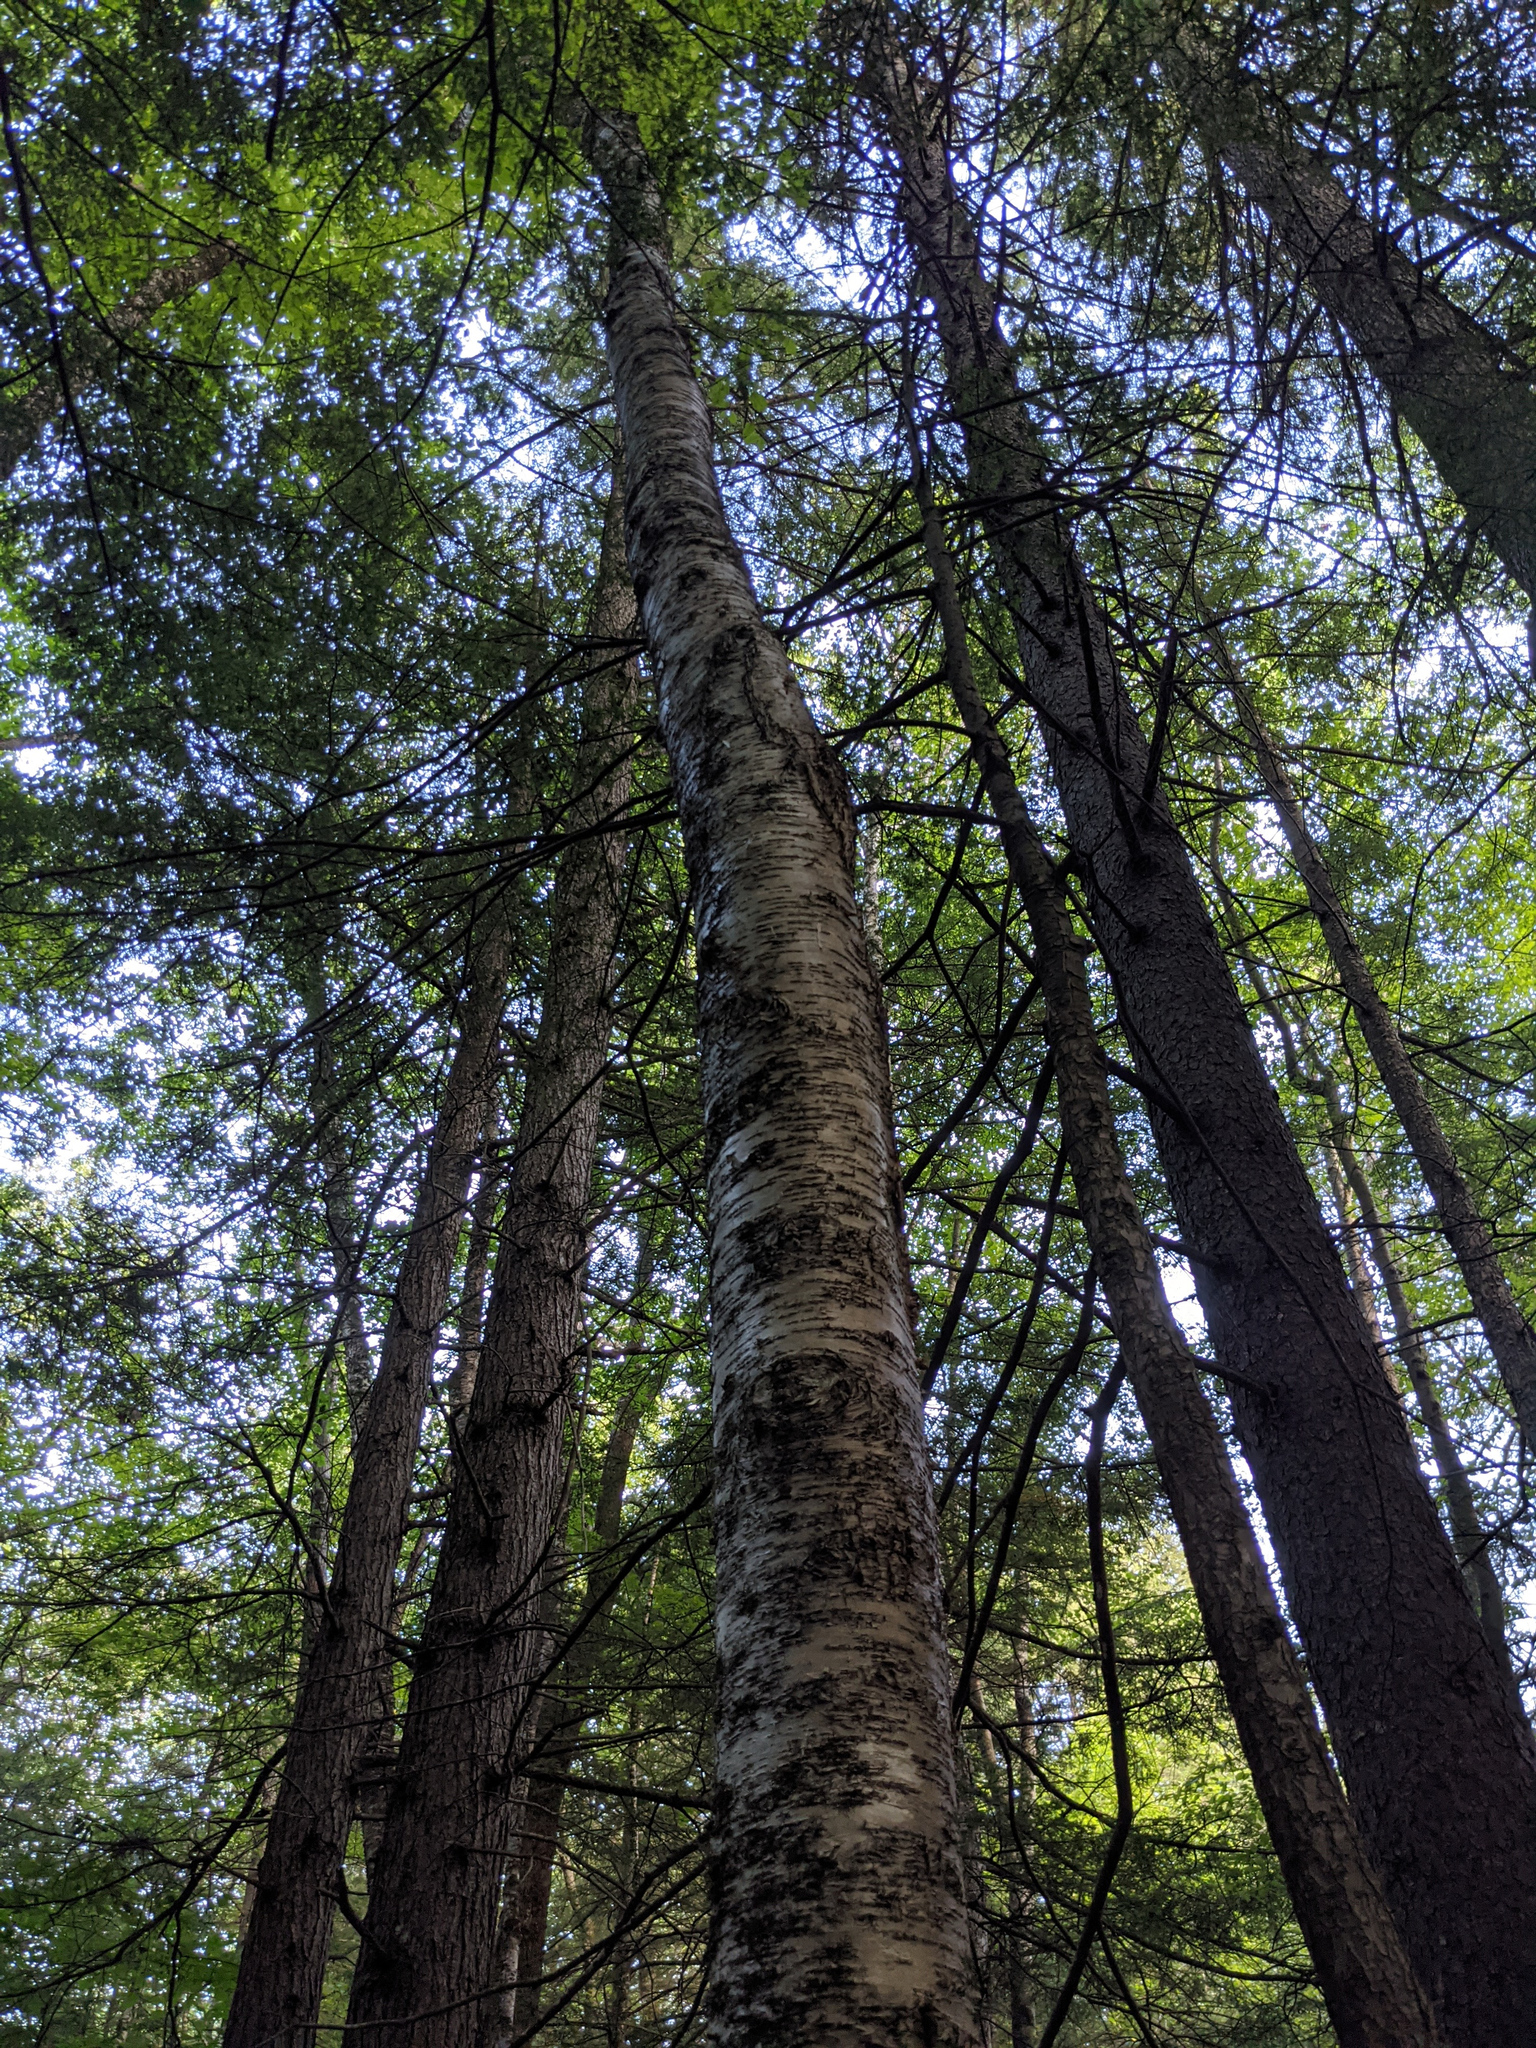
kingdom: Plantae
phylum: Tracheophyta
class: Magnoliopsida
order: Fagales
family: Betulaceae
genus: Betula
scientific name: Betula alleghaniensis
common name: Yellow birch
